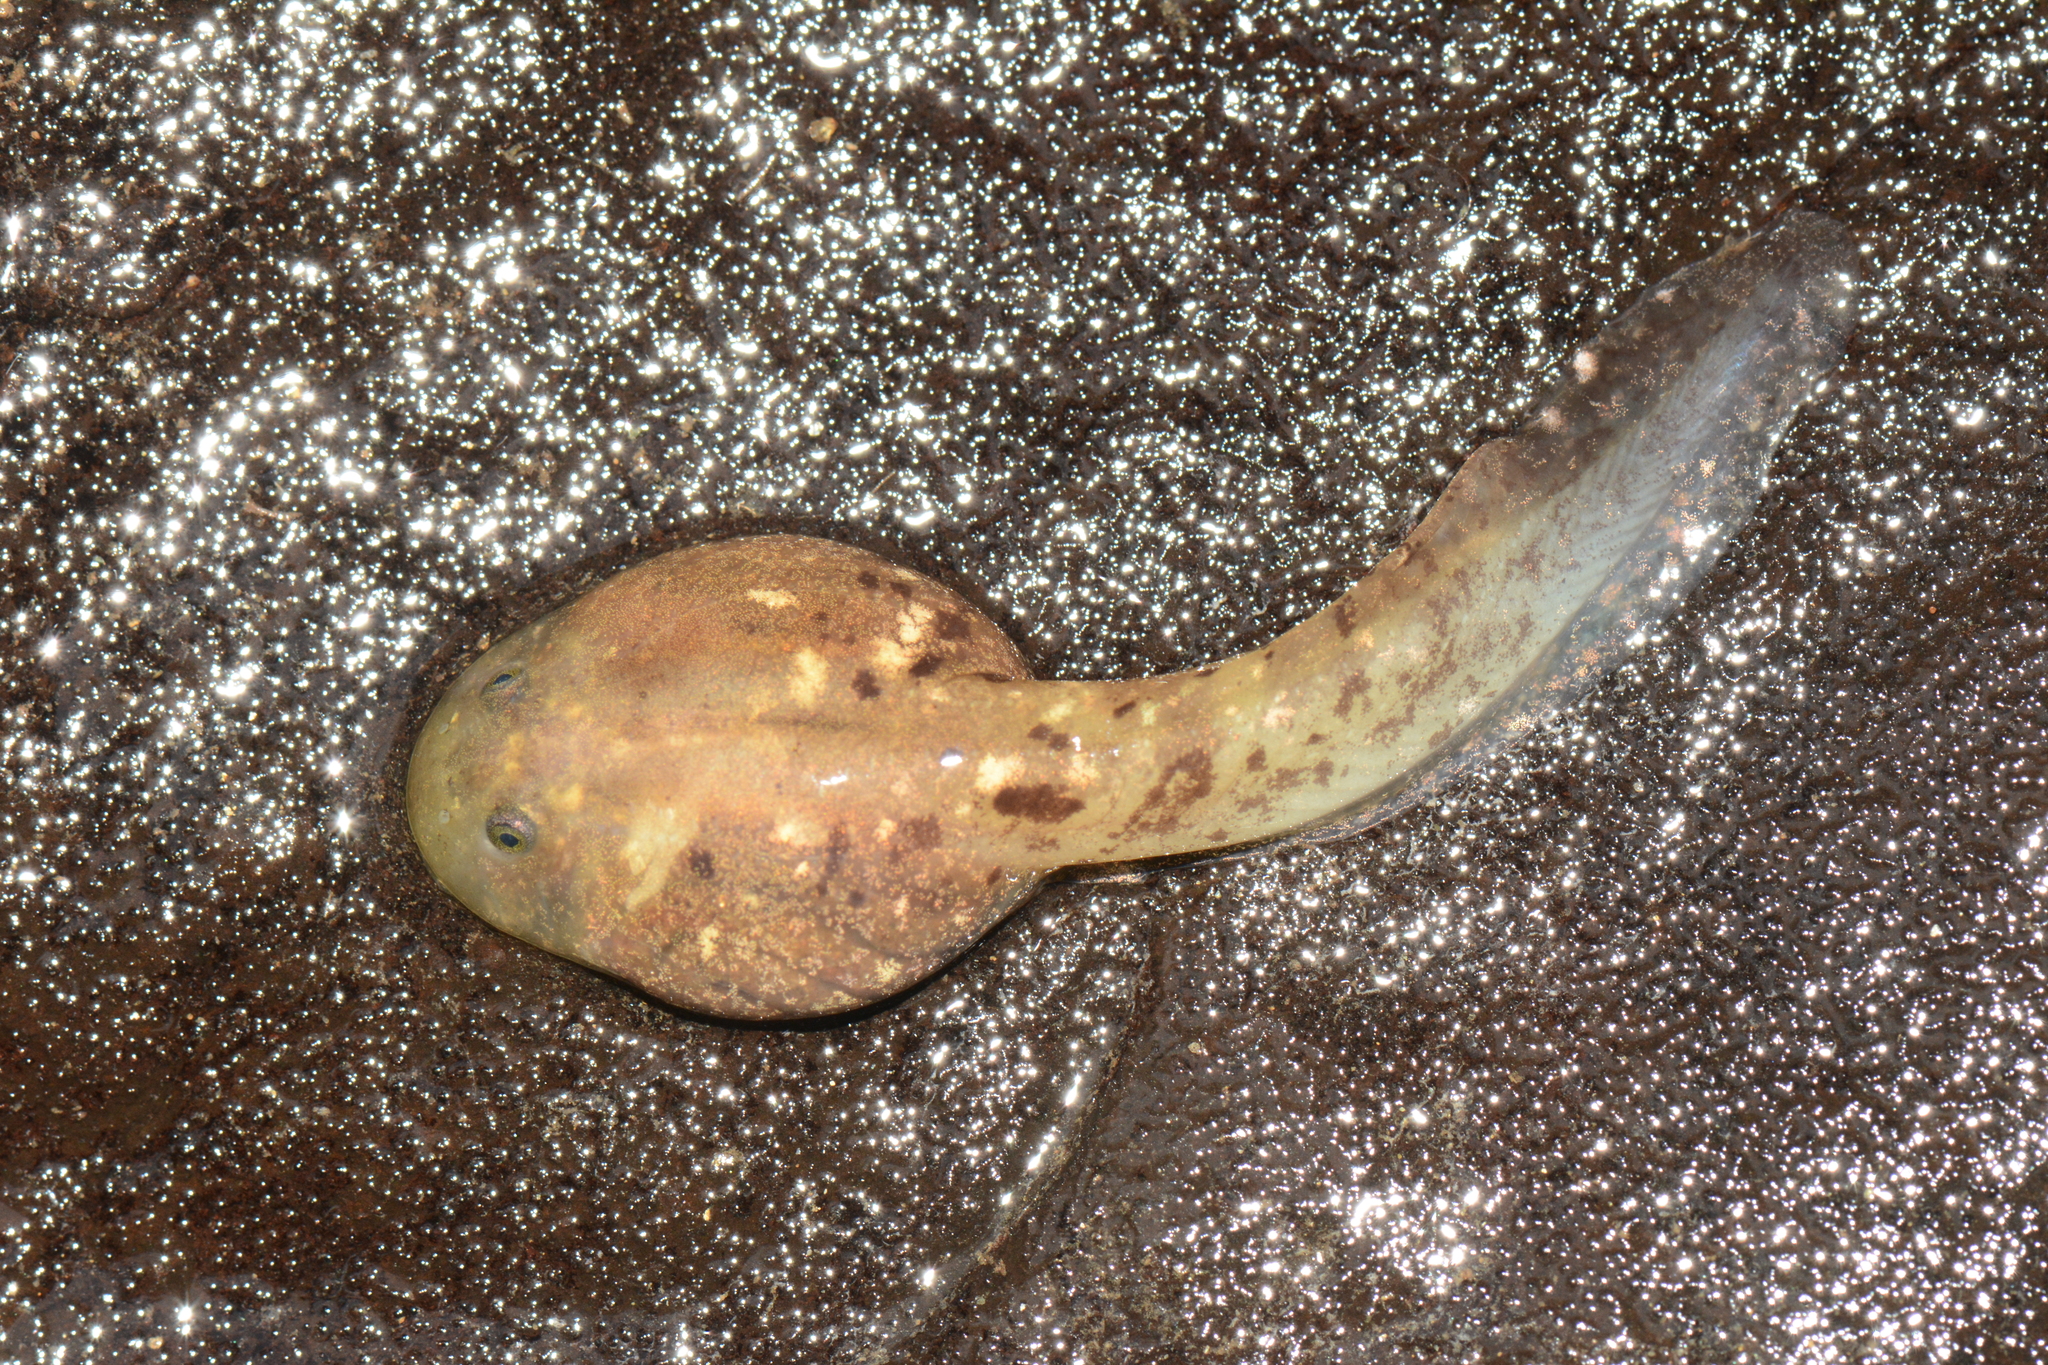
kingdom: Animalia
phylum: Chordata
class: Amphibia
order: Anura
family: Rhinodermatidae
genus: Insuetophrynus
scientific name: Insuetophrynus acarpicus
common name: Barrio's frog
